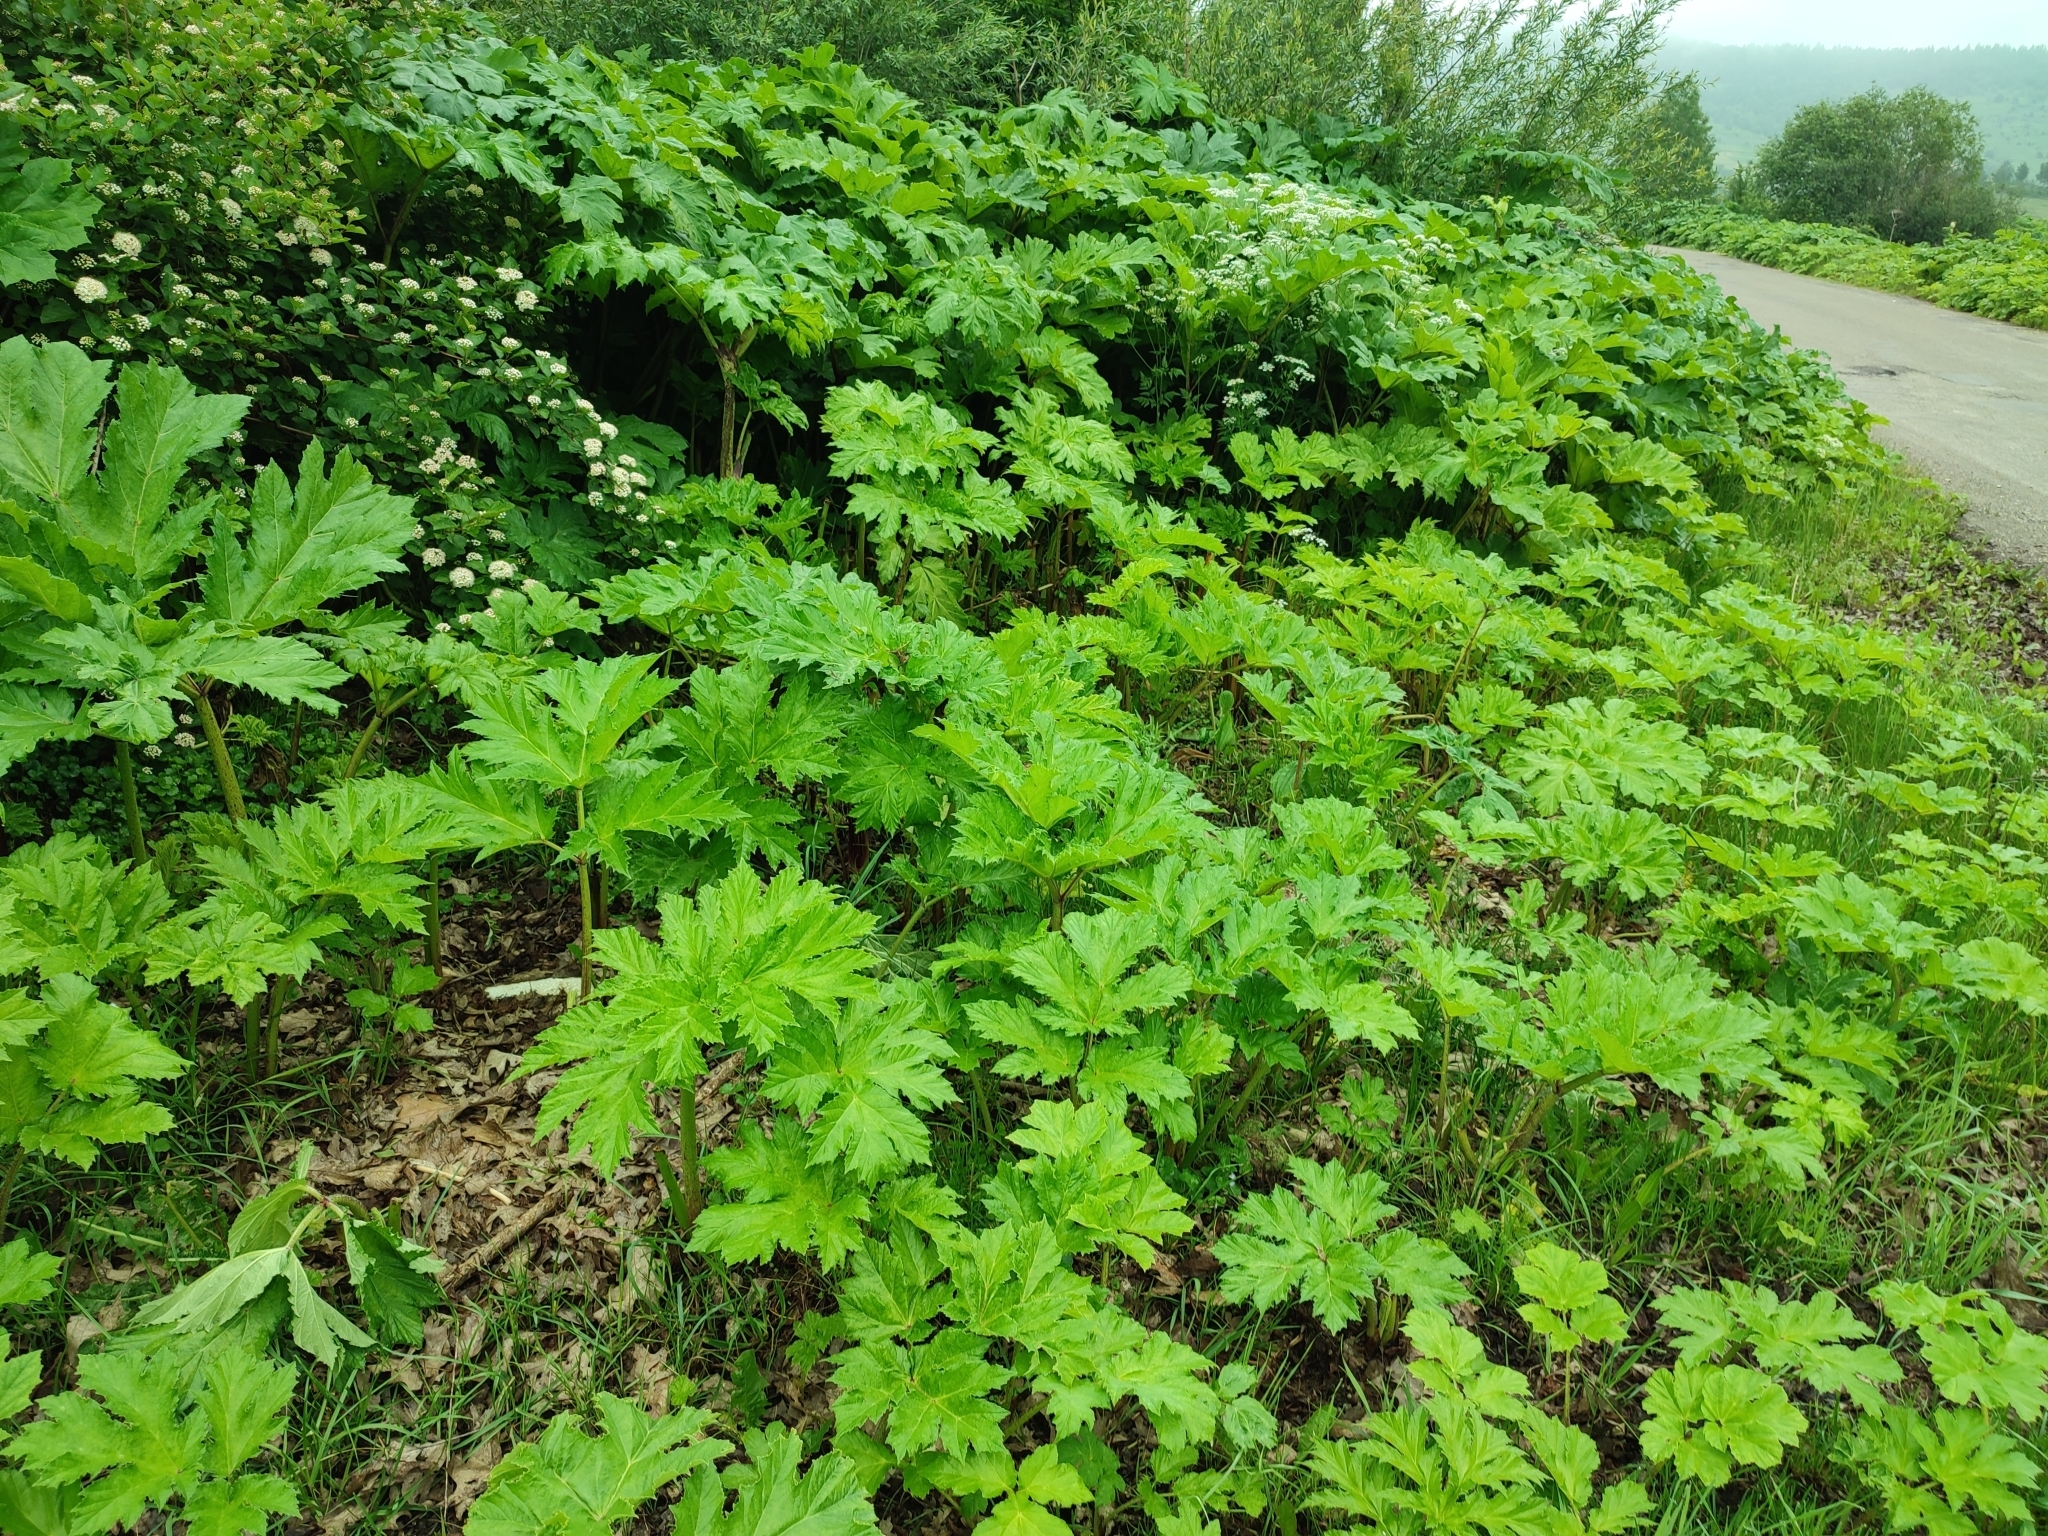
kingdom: Plantae
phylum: Tracheophyta
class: Magnoliopsida
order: Apiales
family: Apiaceae
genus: Heracleum
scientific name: Heracleum sosnowskyi
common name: Sosnowsky's hogweed
